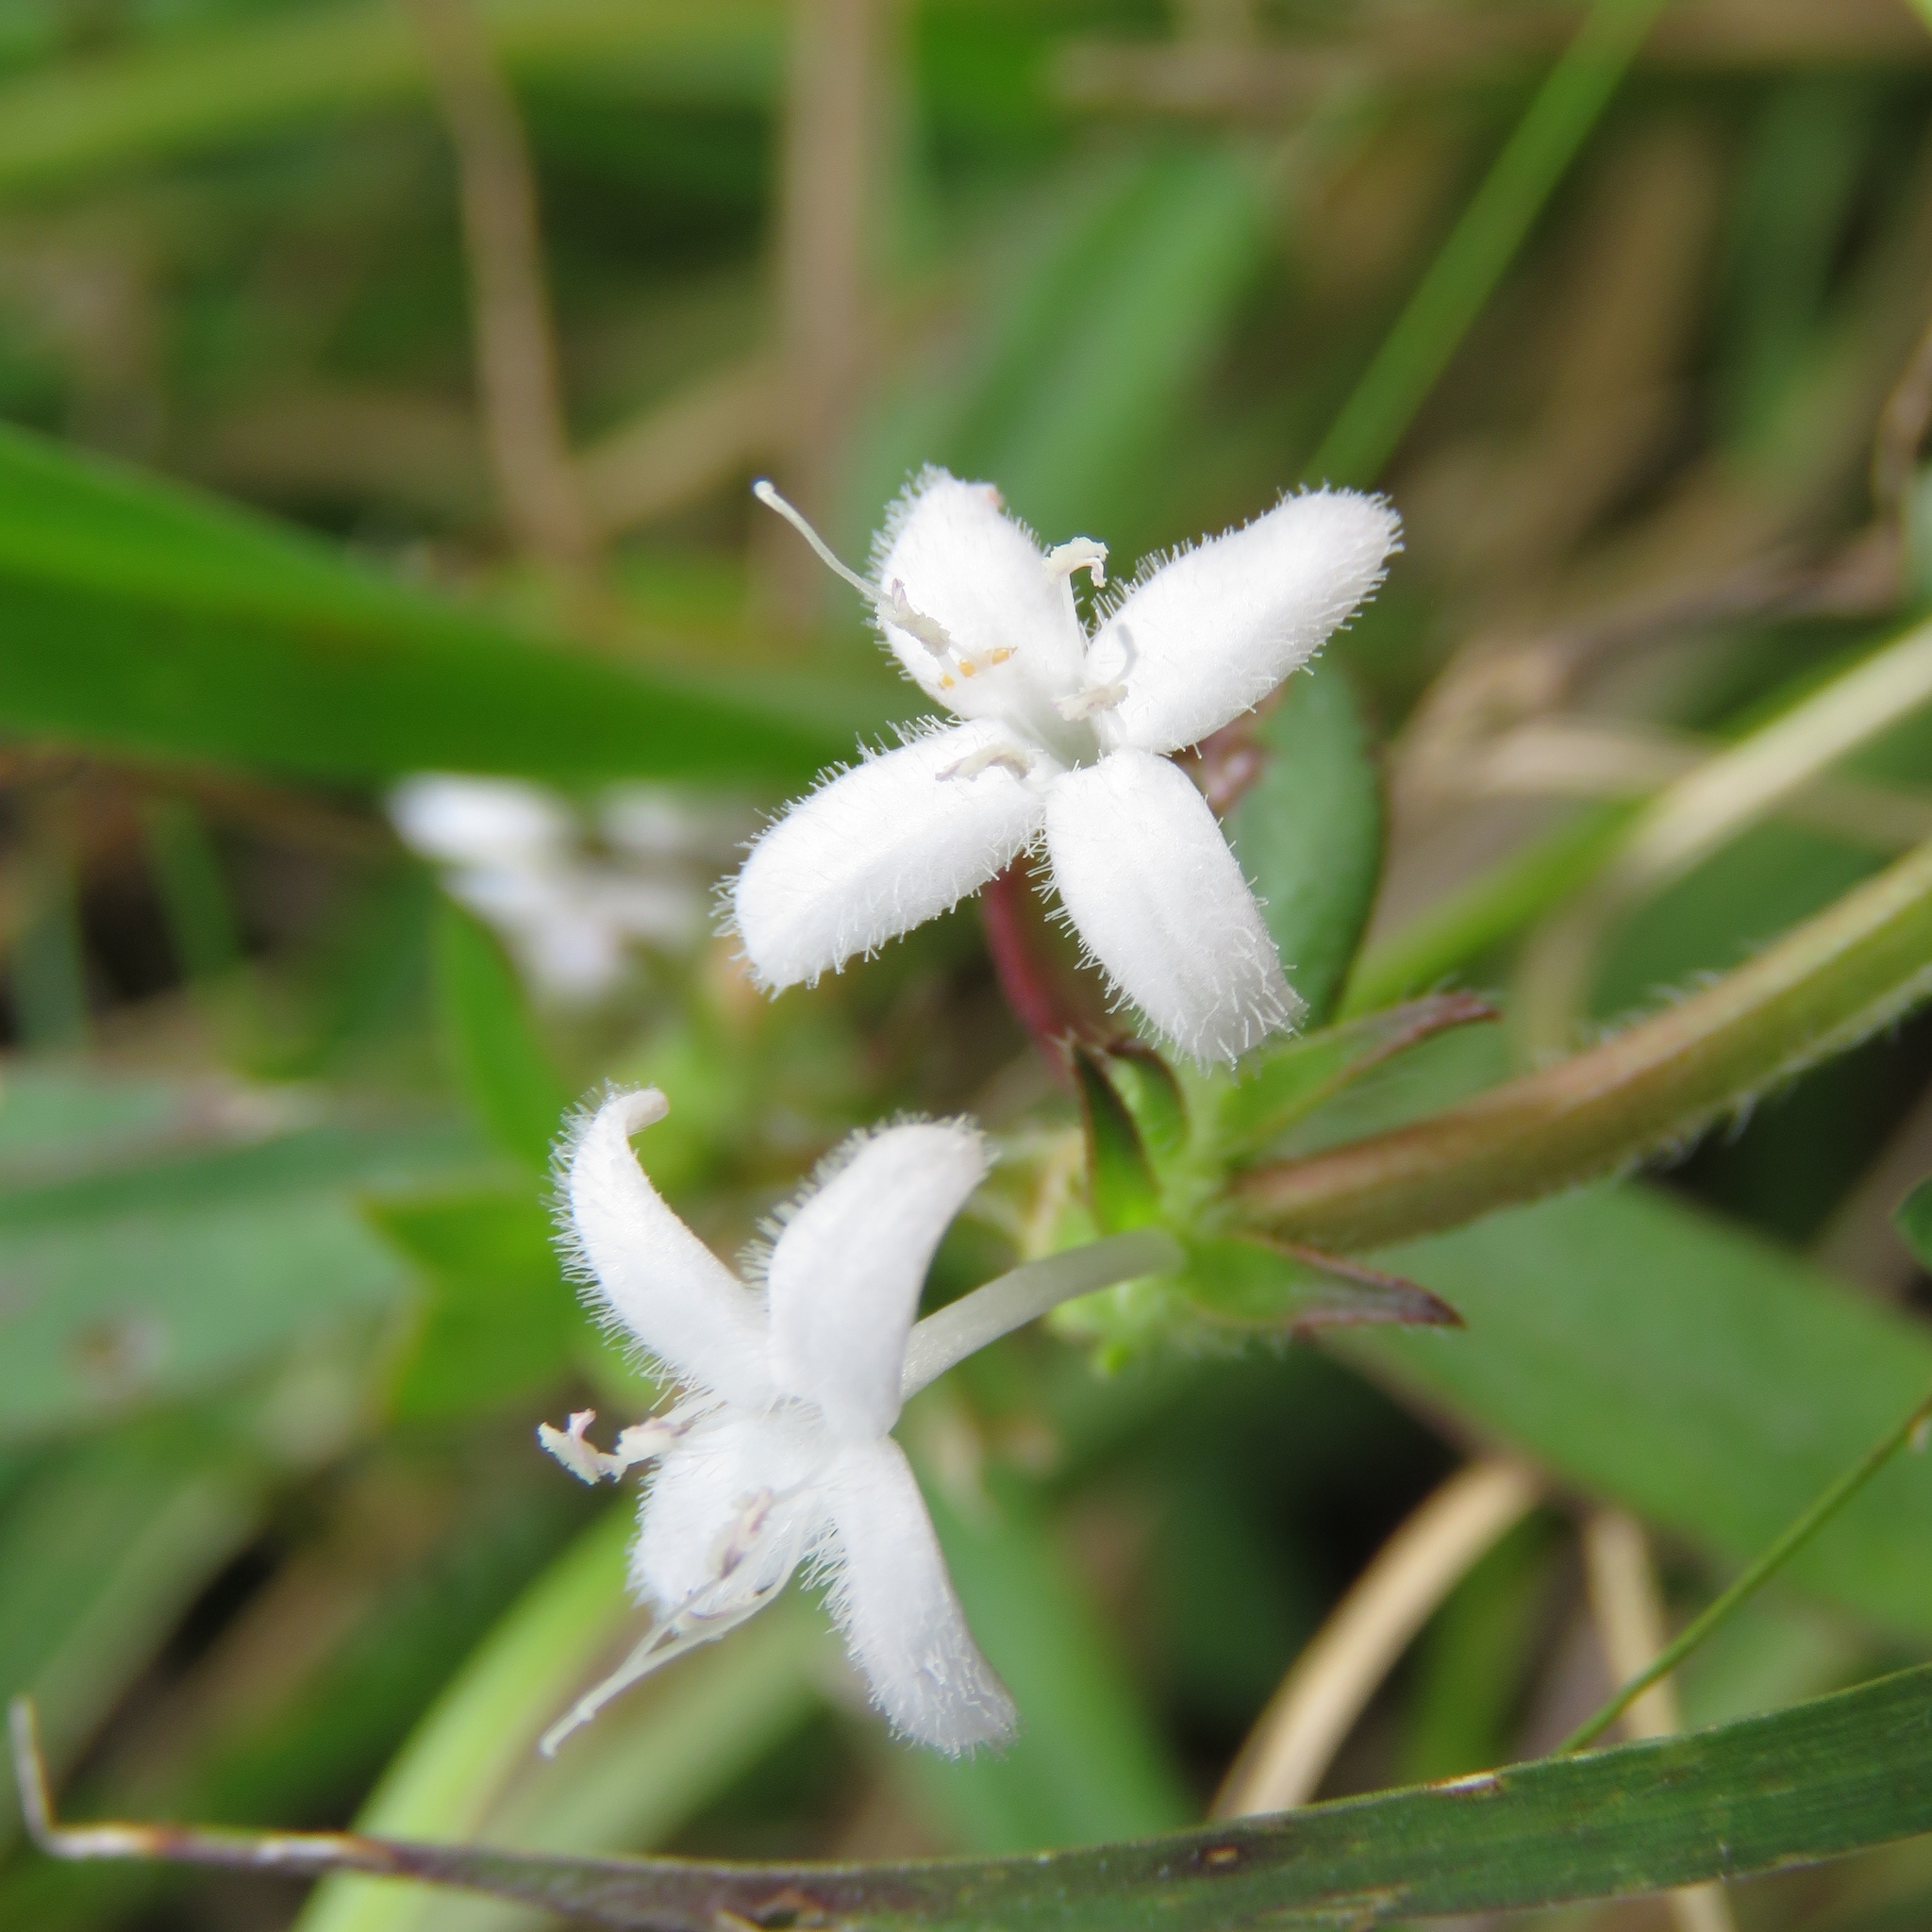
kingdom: Plantae
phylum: Tracheophyta
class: Magnoliopsida
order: Gentianales
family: Rubiaceae
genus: Diodia
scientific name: Diodia virginiana
